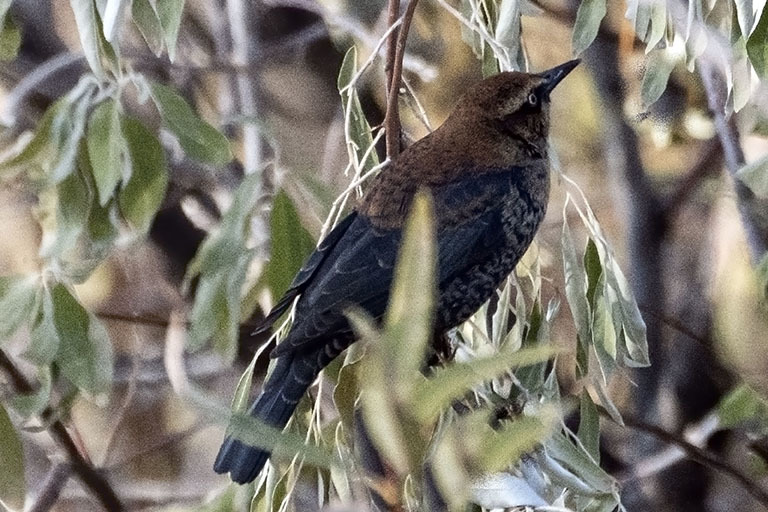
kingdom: Animalia
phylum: Chordata
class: Aves
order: Passeriformes
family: Icteridae
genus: Euphagus
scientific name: Euphagus carolinus
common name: Rusty blackbird
